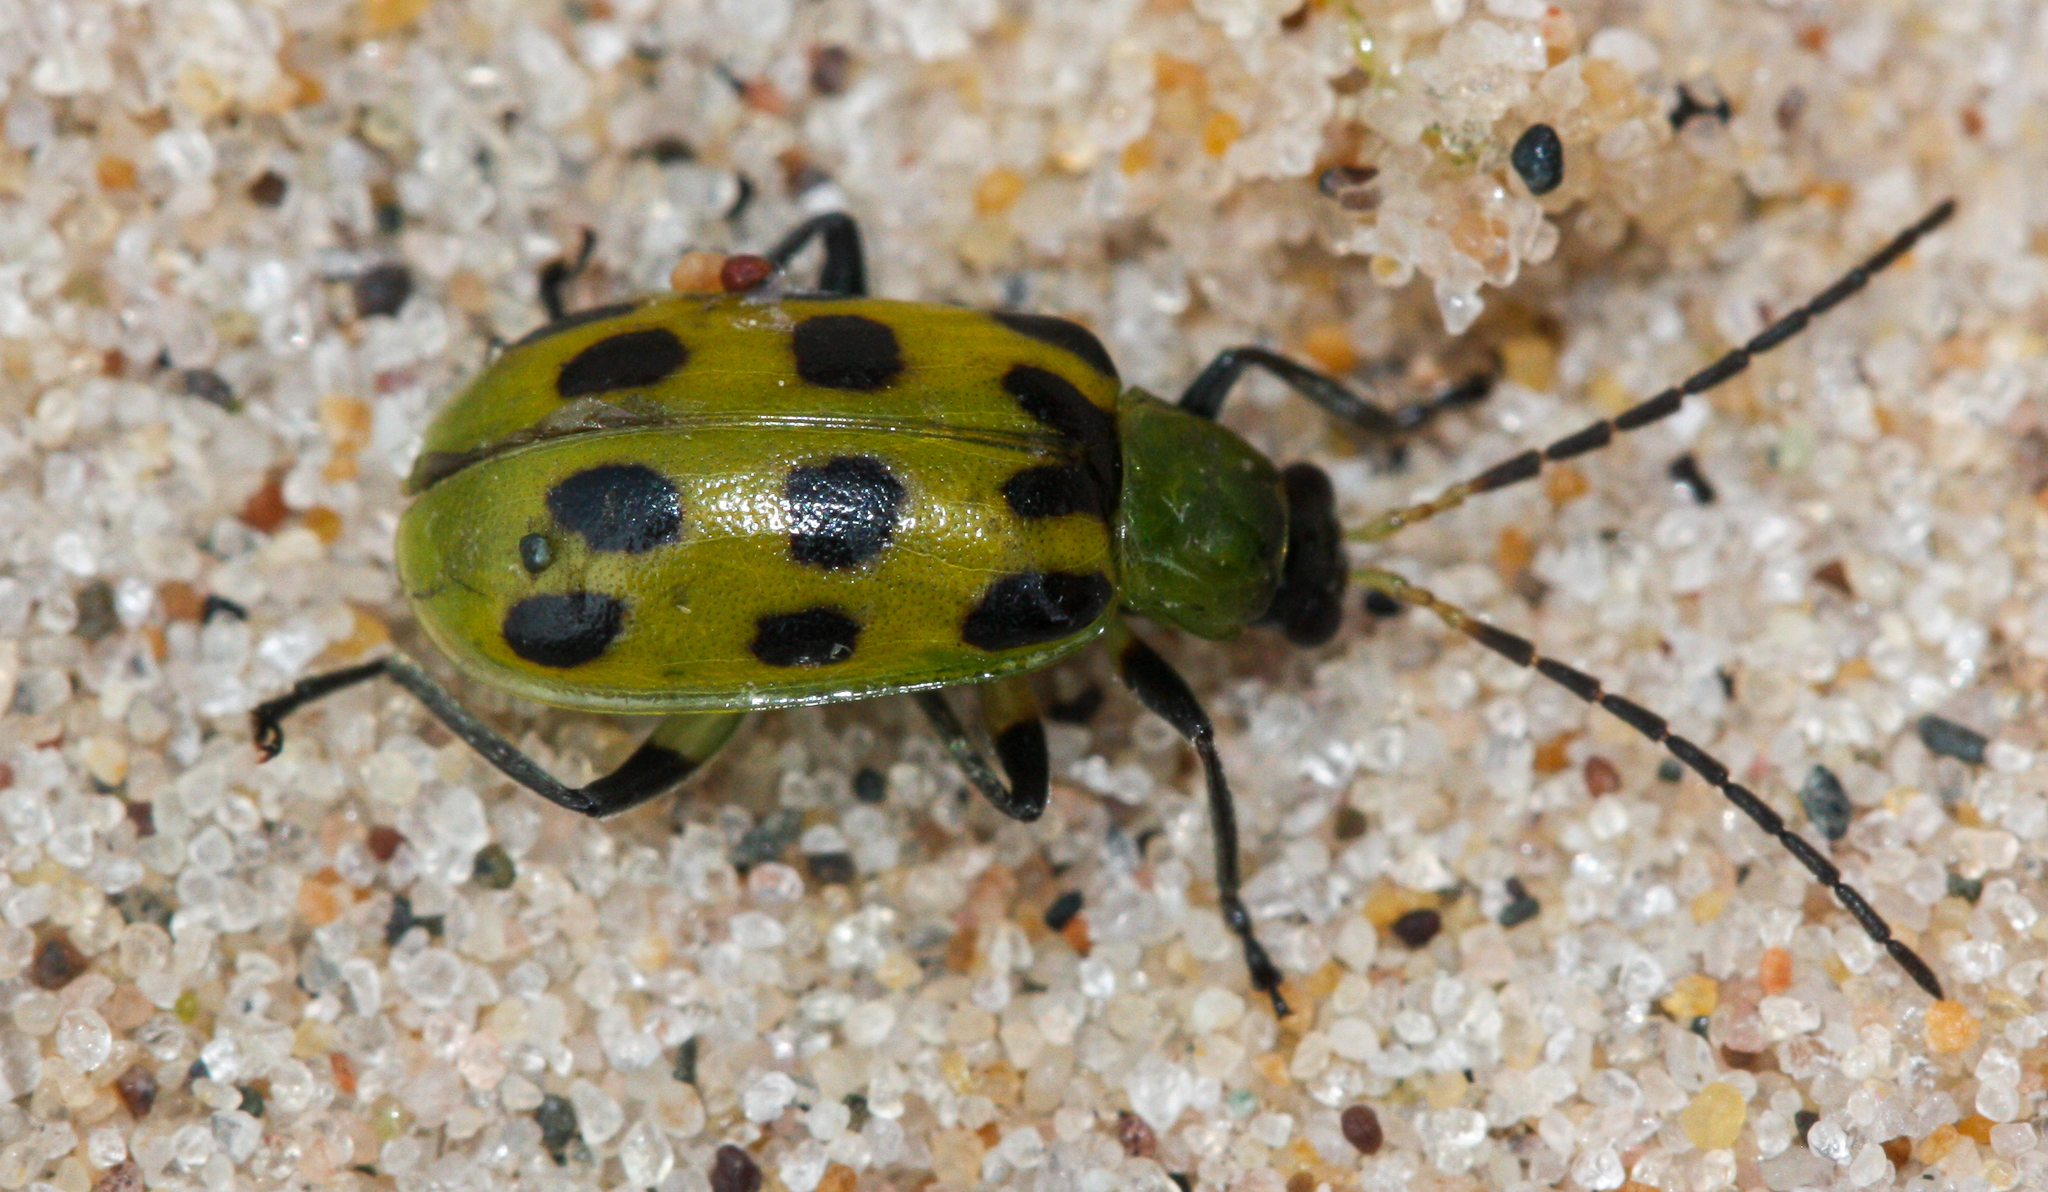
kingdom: Animalia
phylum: Arthropoda
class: Insecta
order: Coleoptera
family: Chrysomelidae
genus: Diabrotica
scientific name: Diabrotica undecimpunctata
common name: Spotted cucumber beetle
